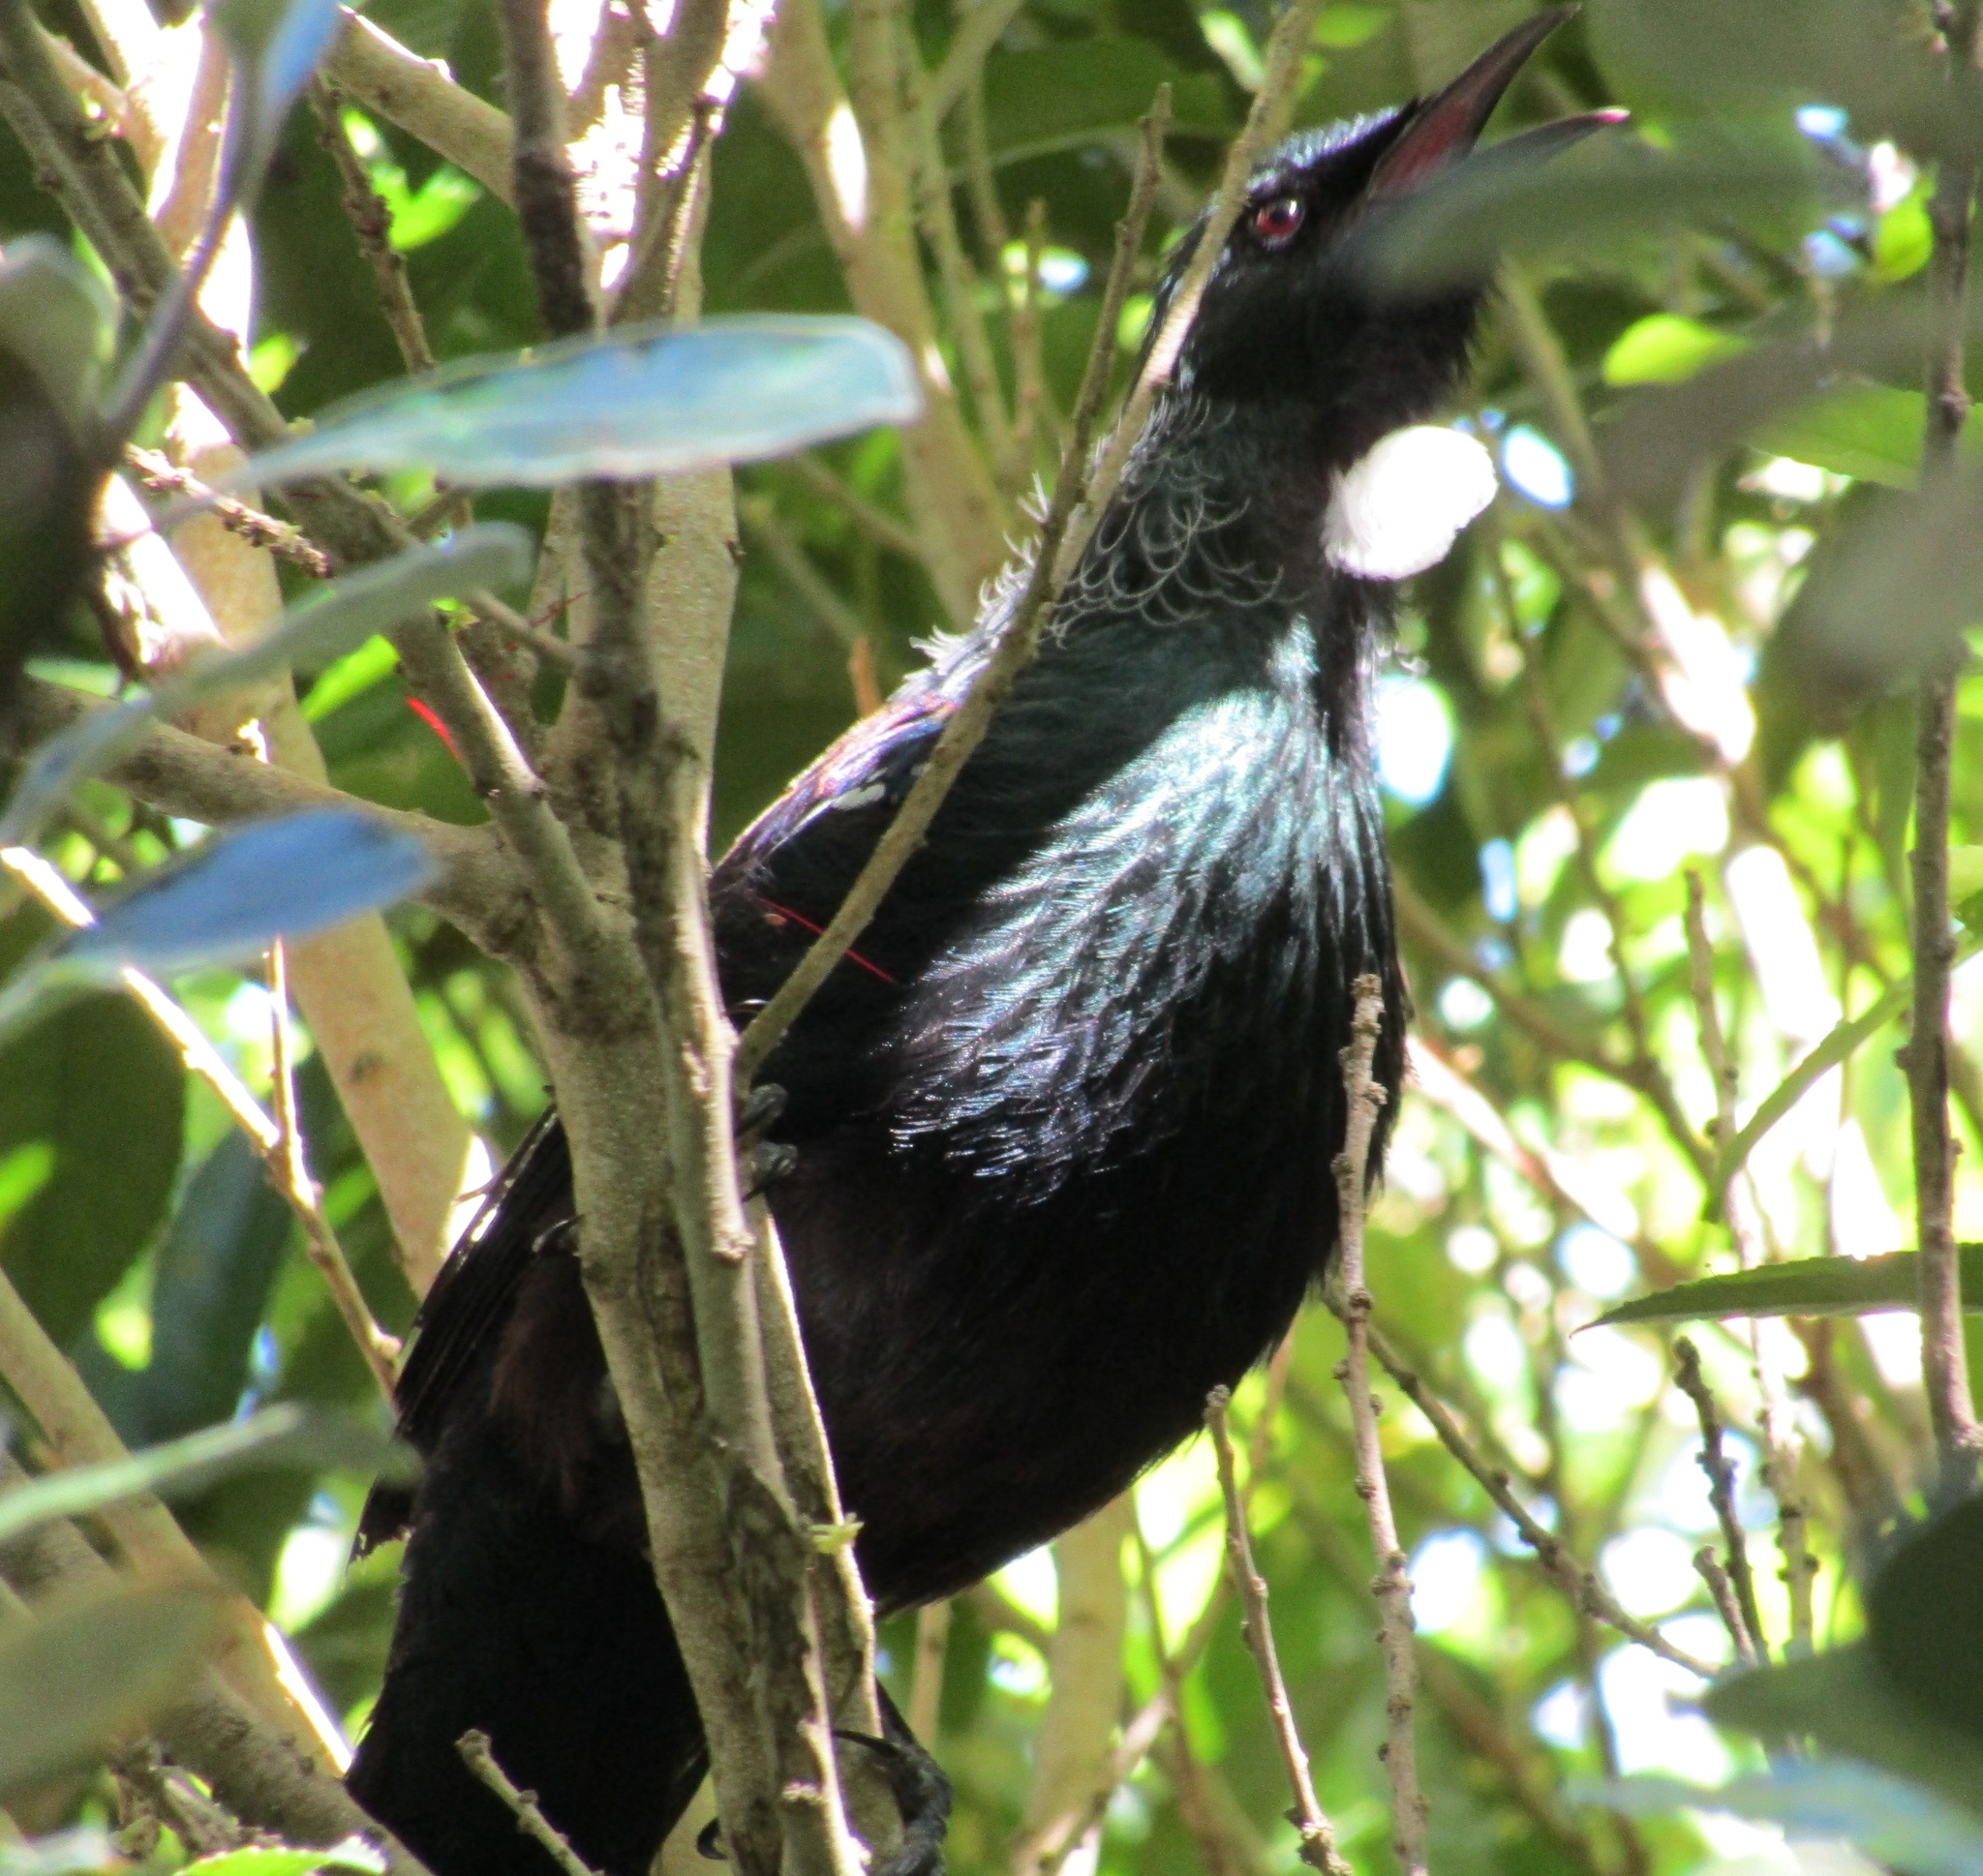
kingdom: Animalia
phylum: Chordata
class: Aves
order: Passeriformes
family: Meliphagidae
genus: Prosthemadera
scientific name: Prosthemadera novaeseelandiae
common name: Tui
